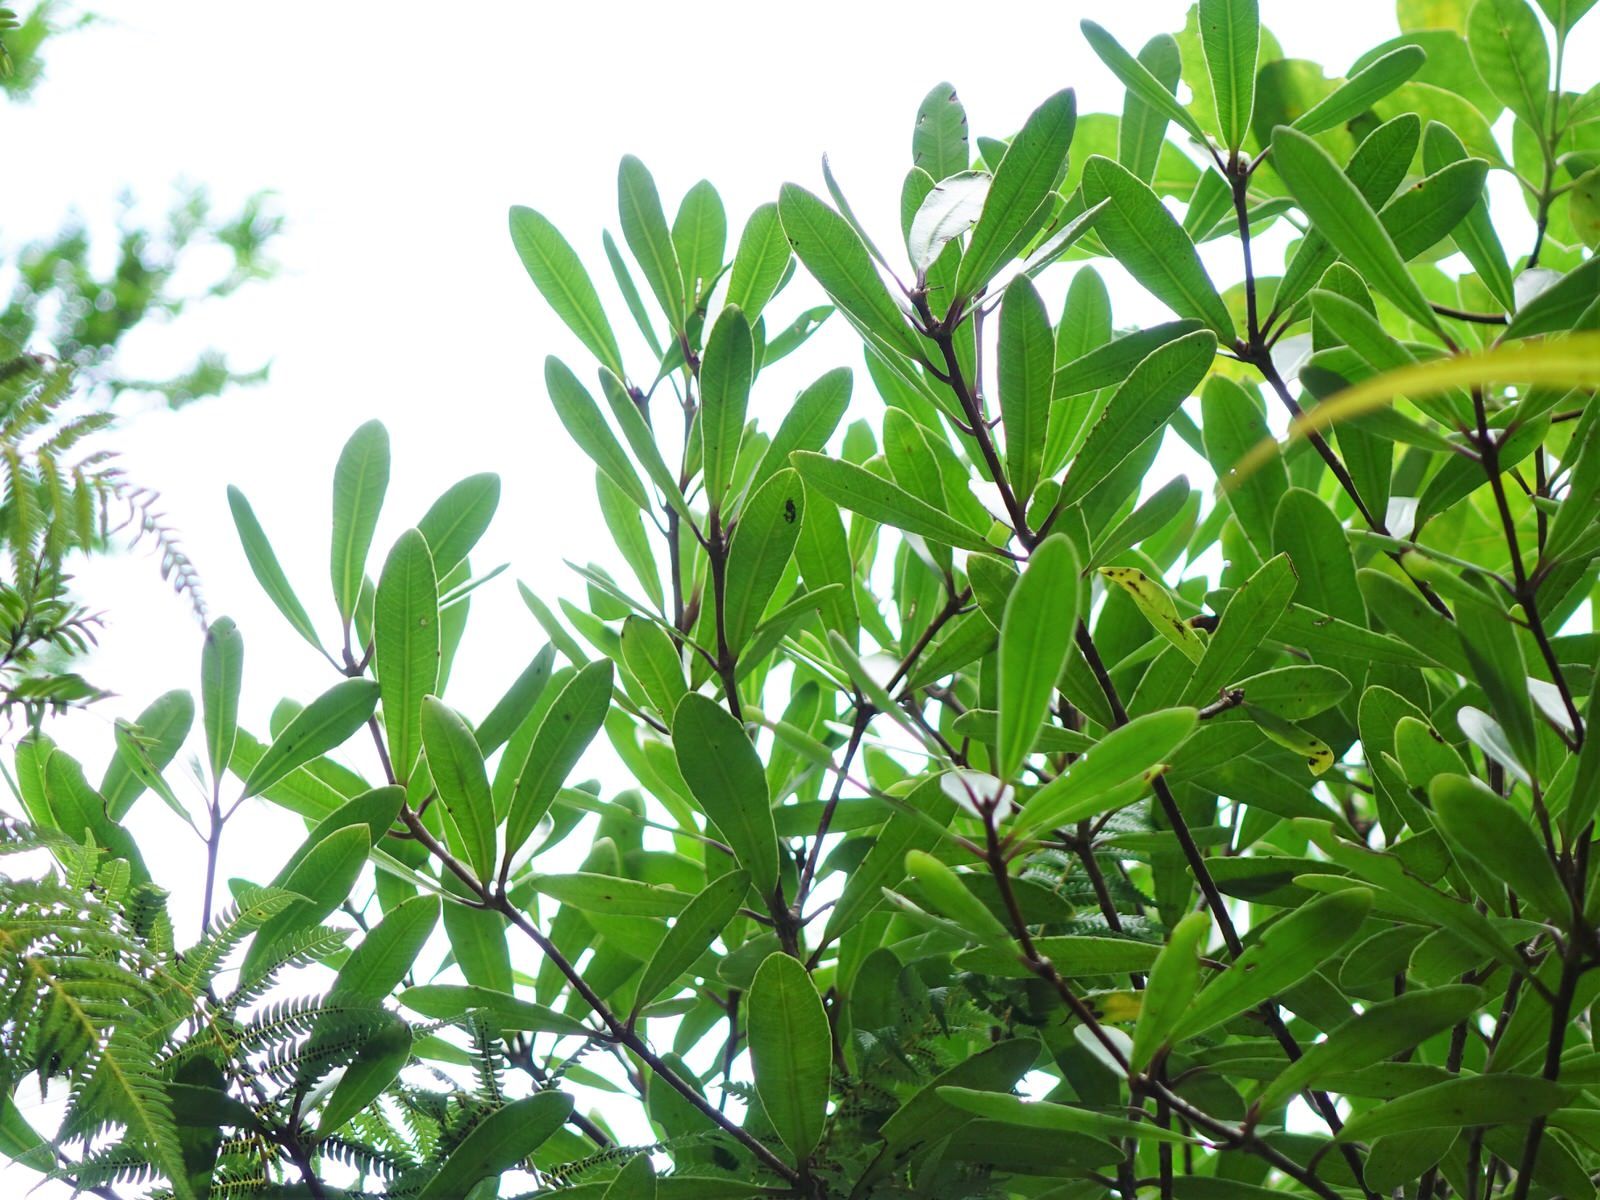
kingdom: Plantae
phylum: Tracheophyta
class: Magnoliopsida
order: Apiales
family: Pittosporaceae
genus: Pittosporum
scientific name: Pittosporum kirkii
